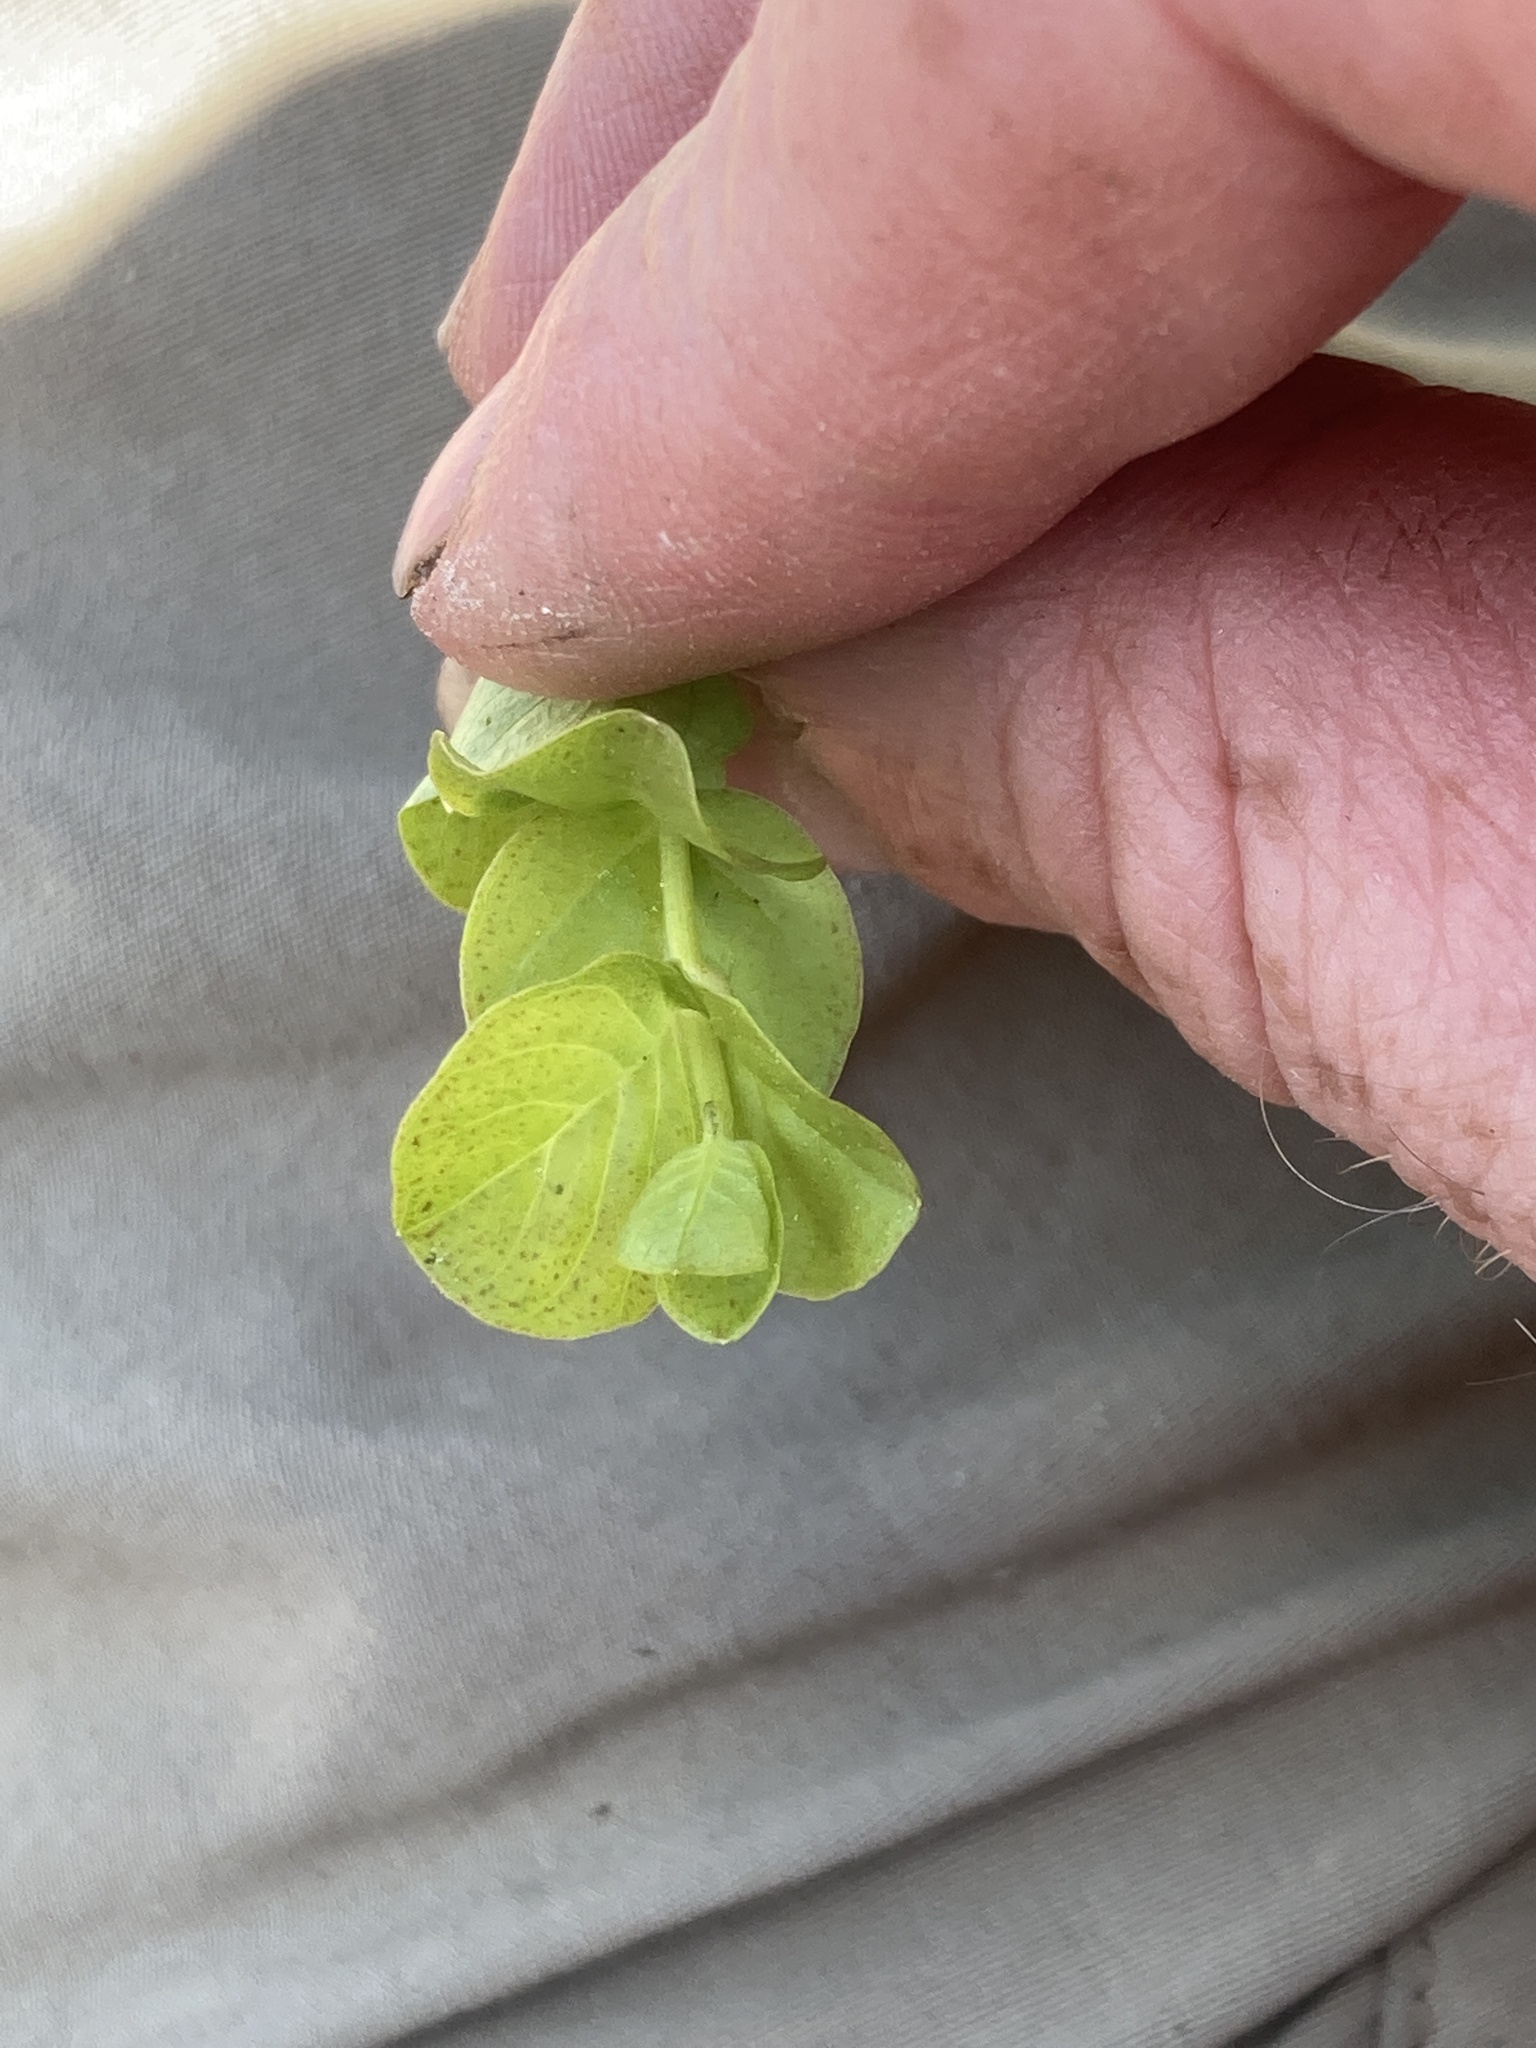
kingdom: Plantae
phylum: Tracheophyta
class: Magnoliopsida
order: Ericales
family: Primulaceae
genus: Lysimachia
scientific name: Lysimachia nummularia
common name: Moneywort
